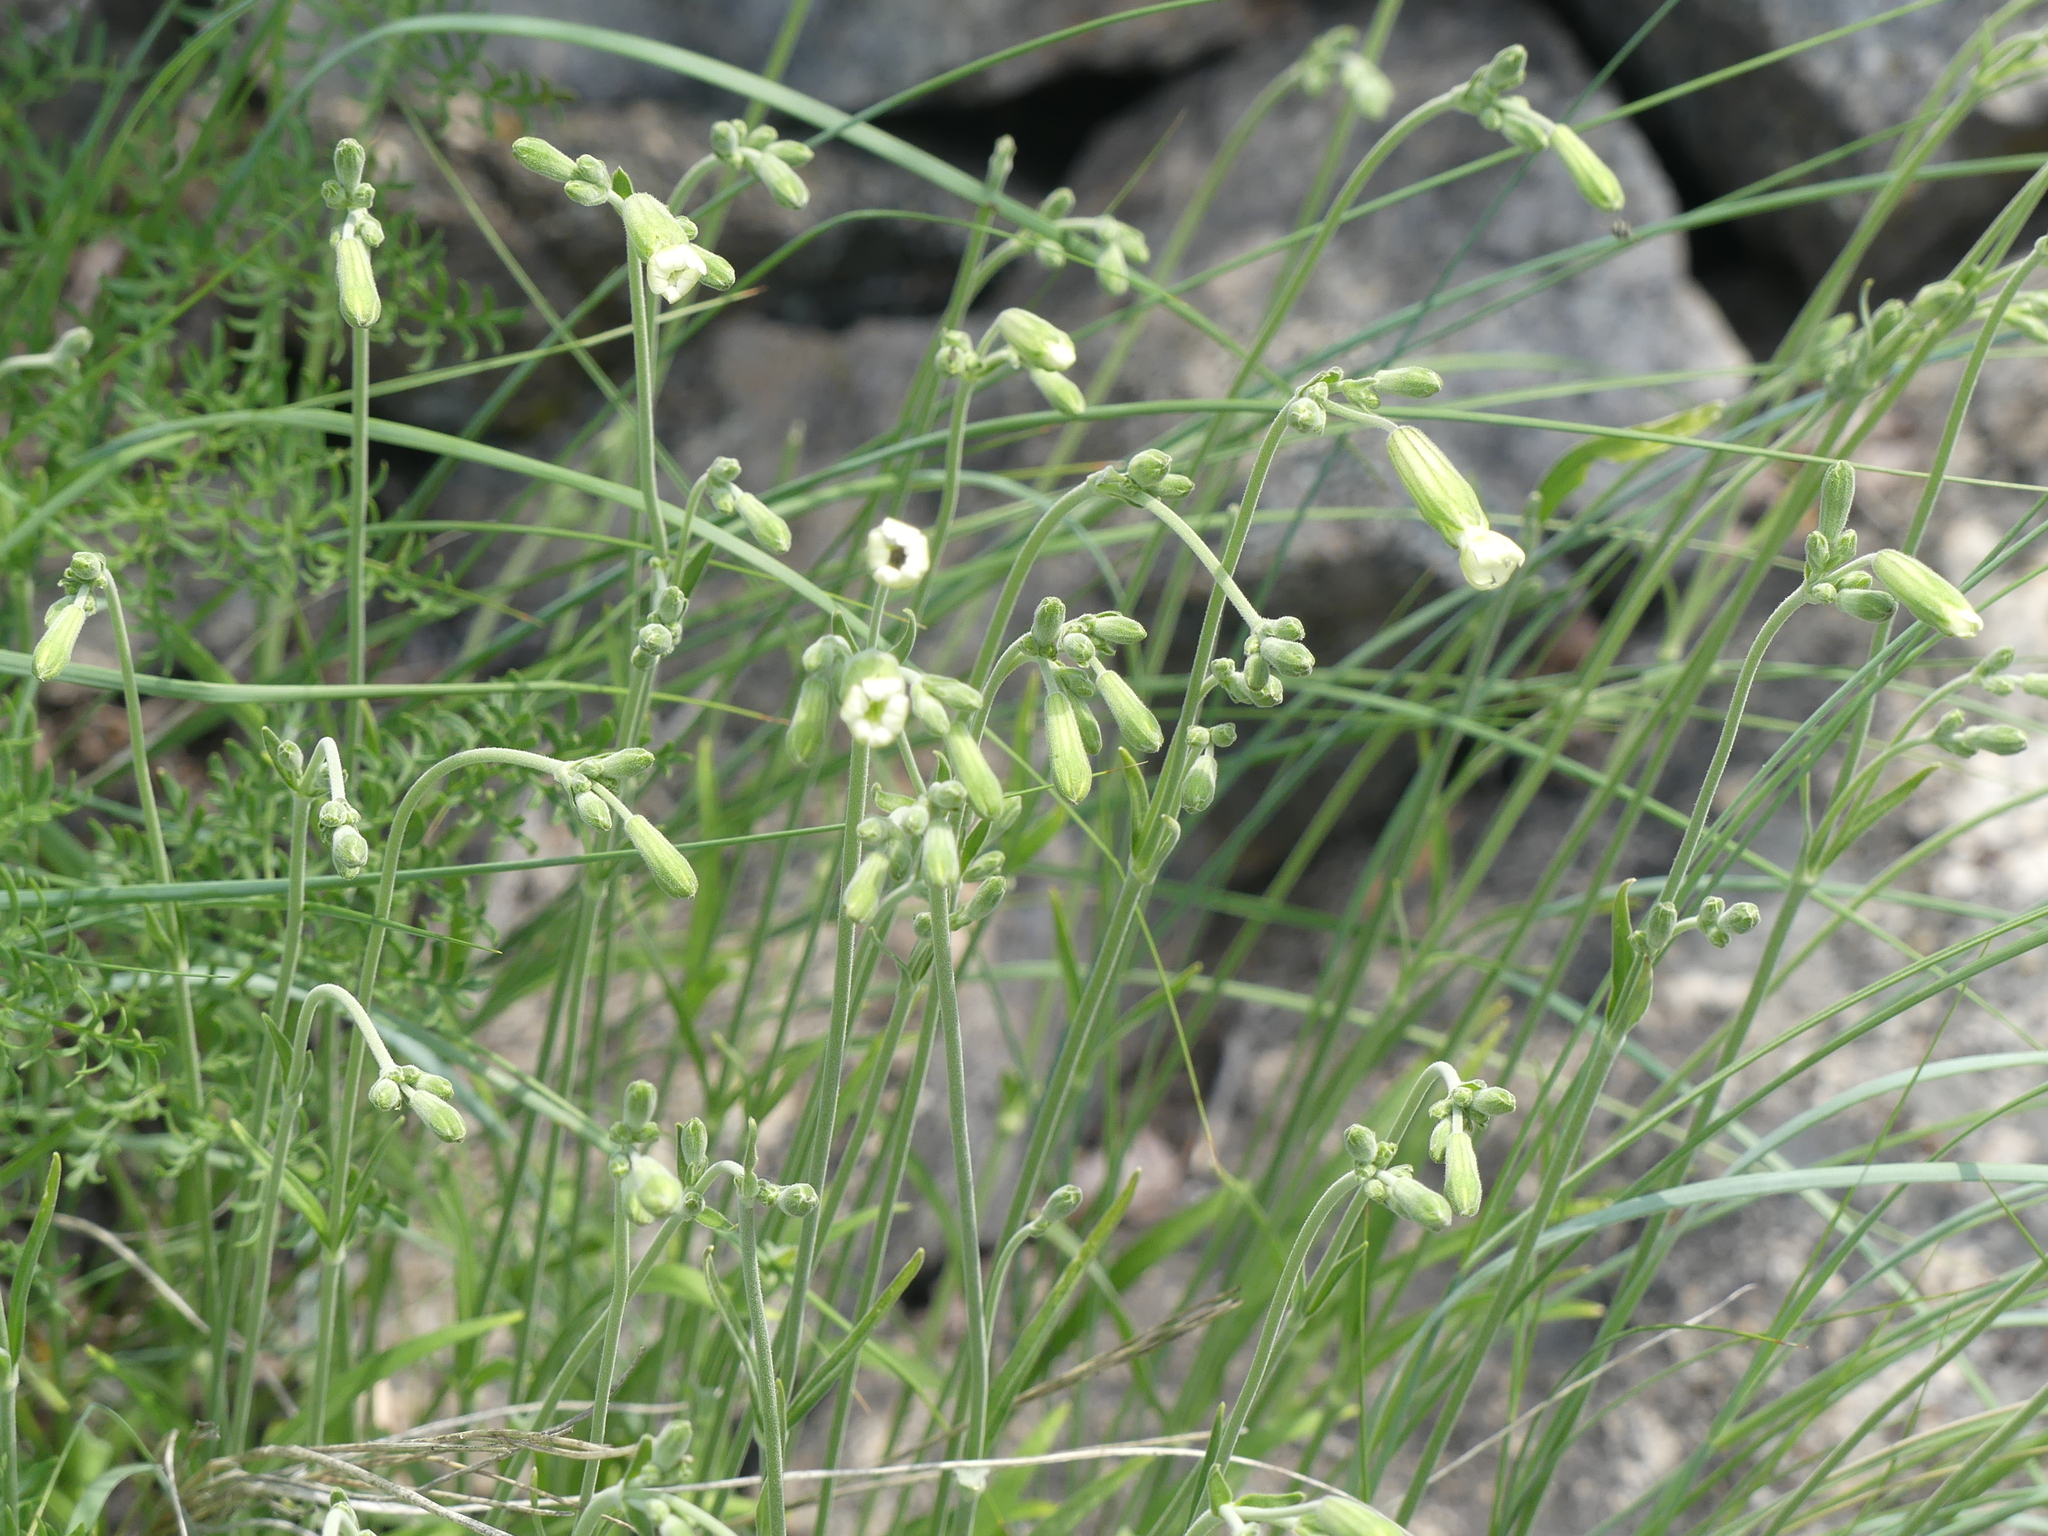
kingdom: Plantae
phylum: Tracheophyta
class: Magnoliopsida
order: Caryophyllales
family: Caryophyllaceae
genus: Silene
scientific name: Silene douglasii
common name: Douglas's catchfly
